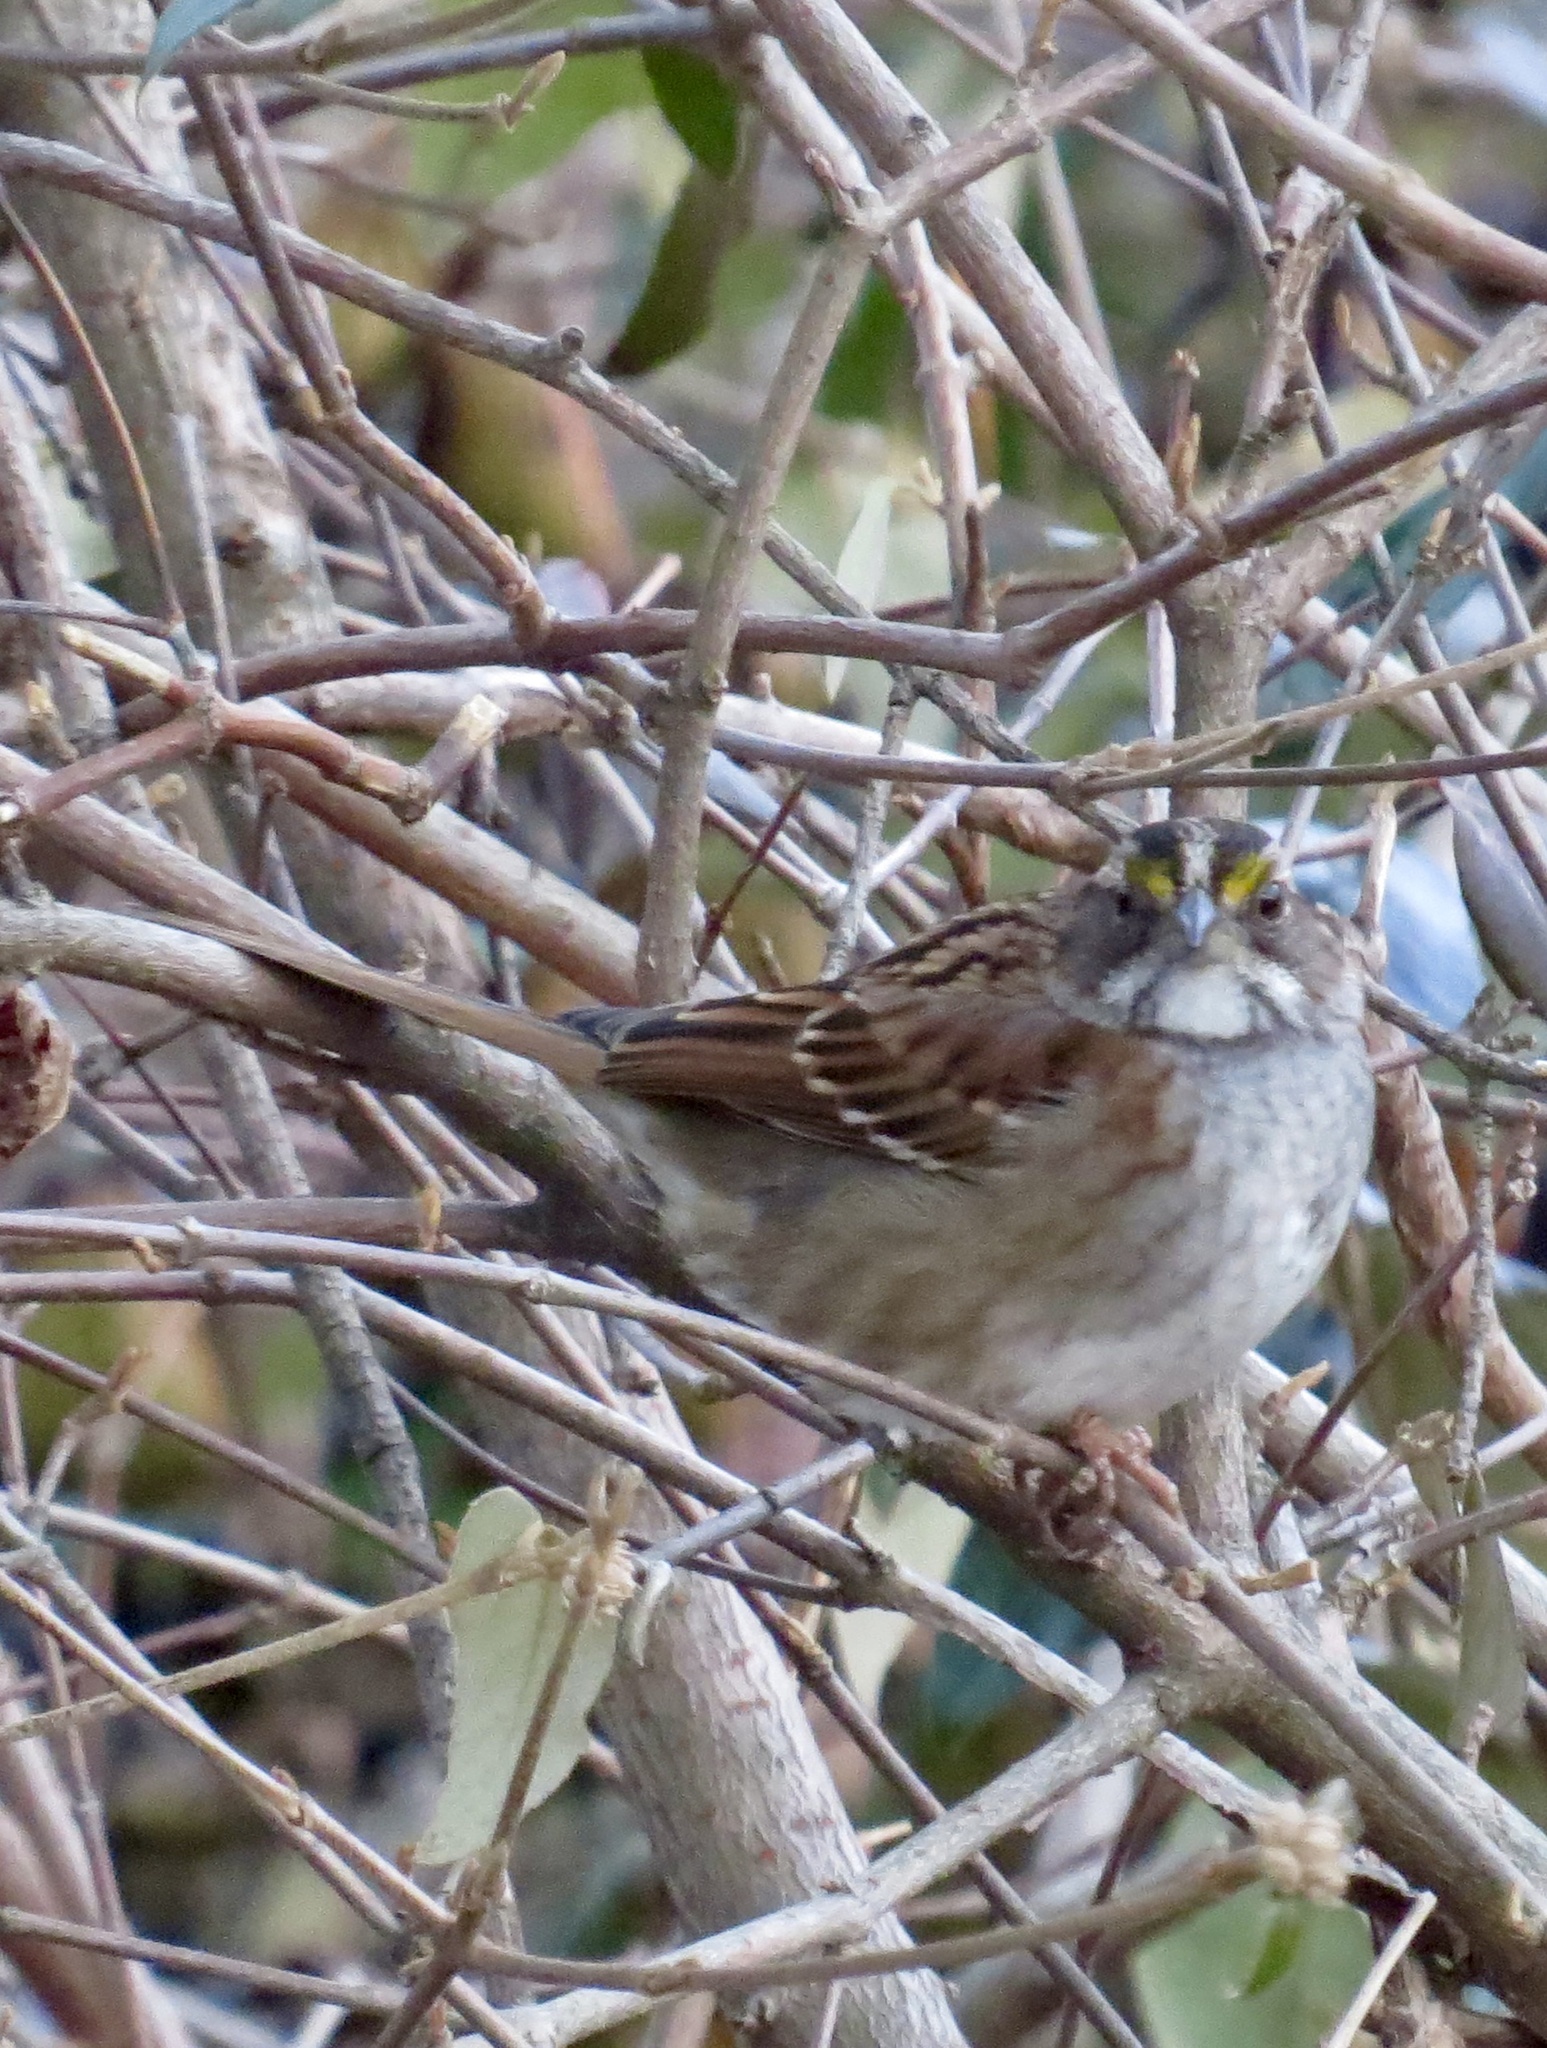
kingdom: Animalia
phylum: Chordata
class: Aves
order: Passeriformes
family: Passerellidae
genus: Zonotrichia
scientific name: Zonotrichia albicollis
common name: White-throated sparrow
